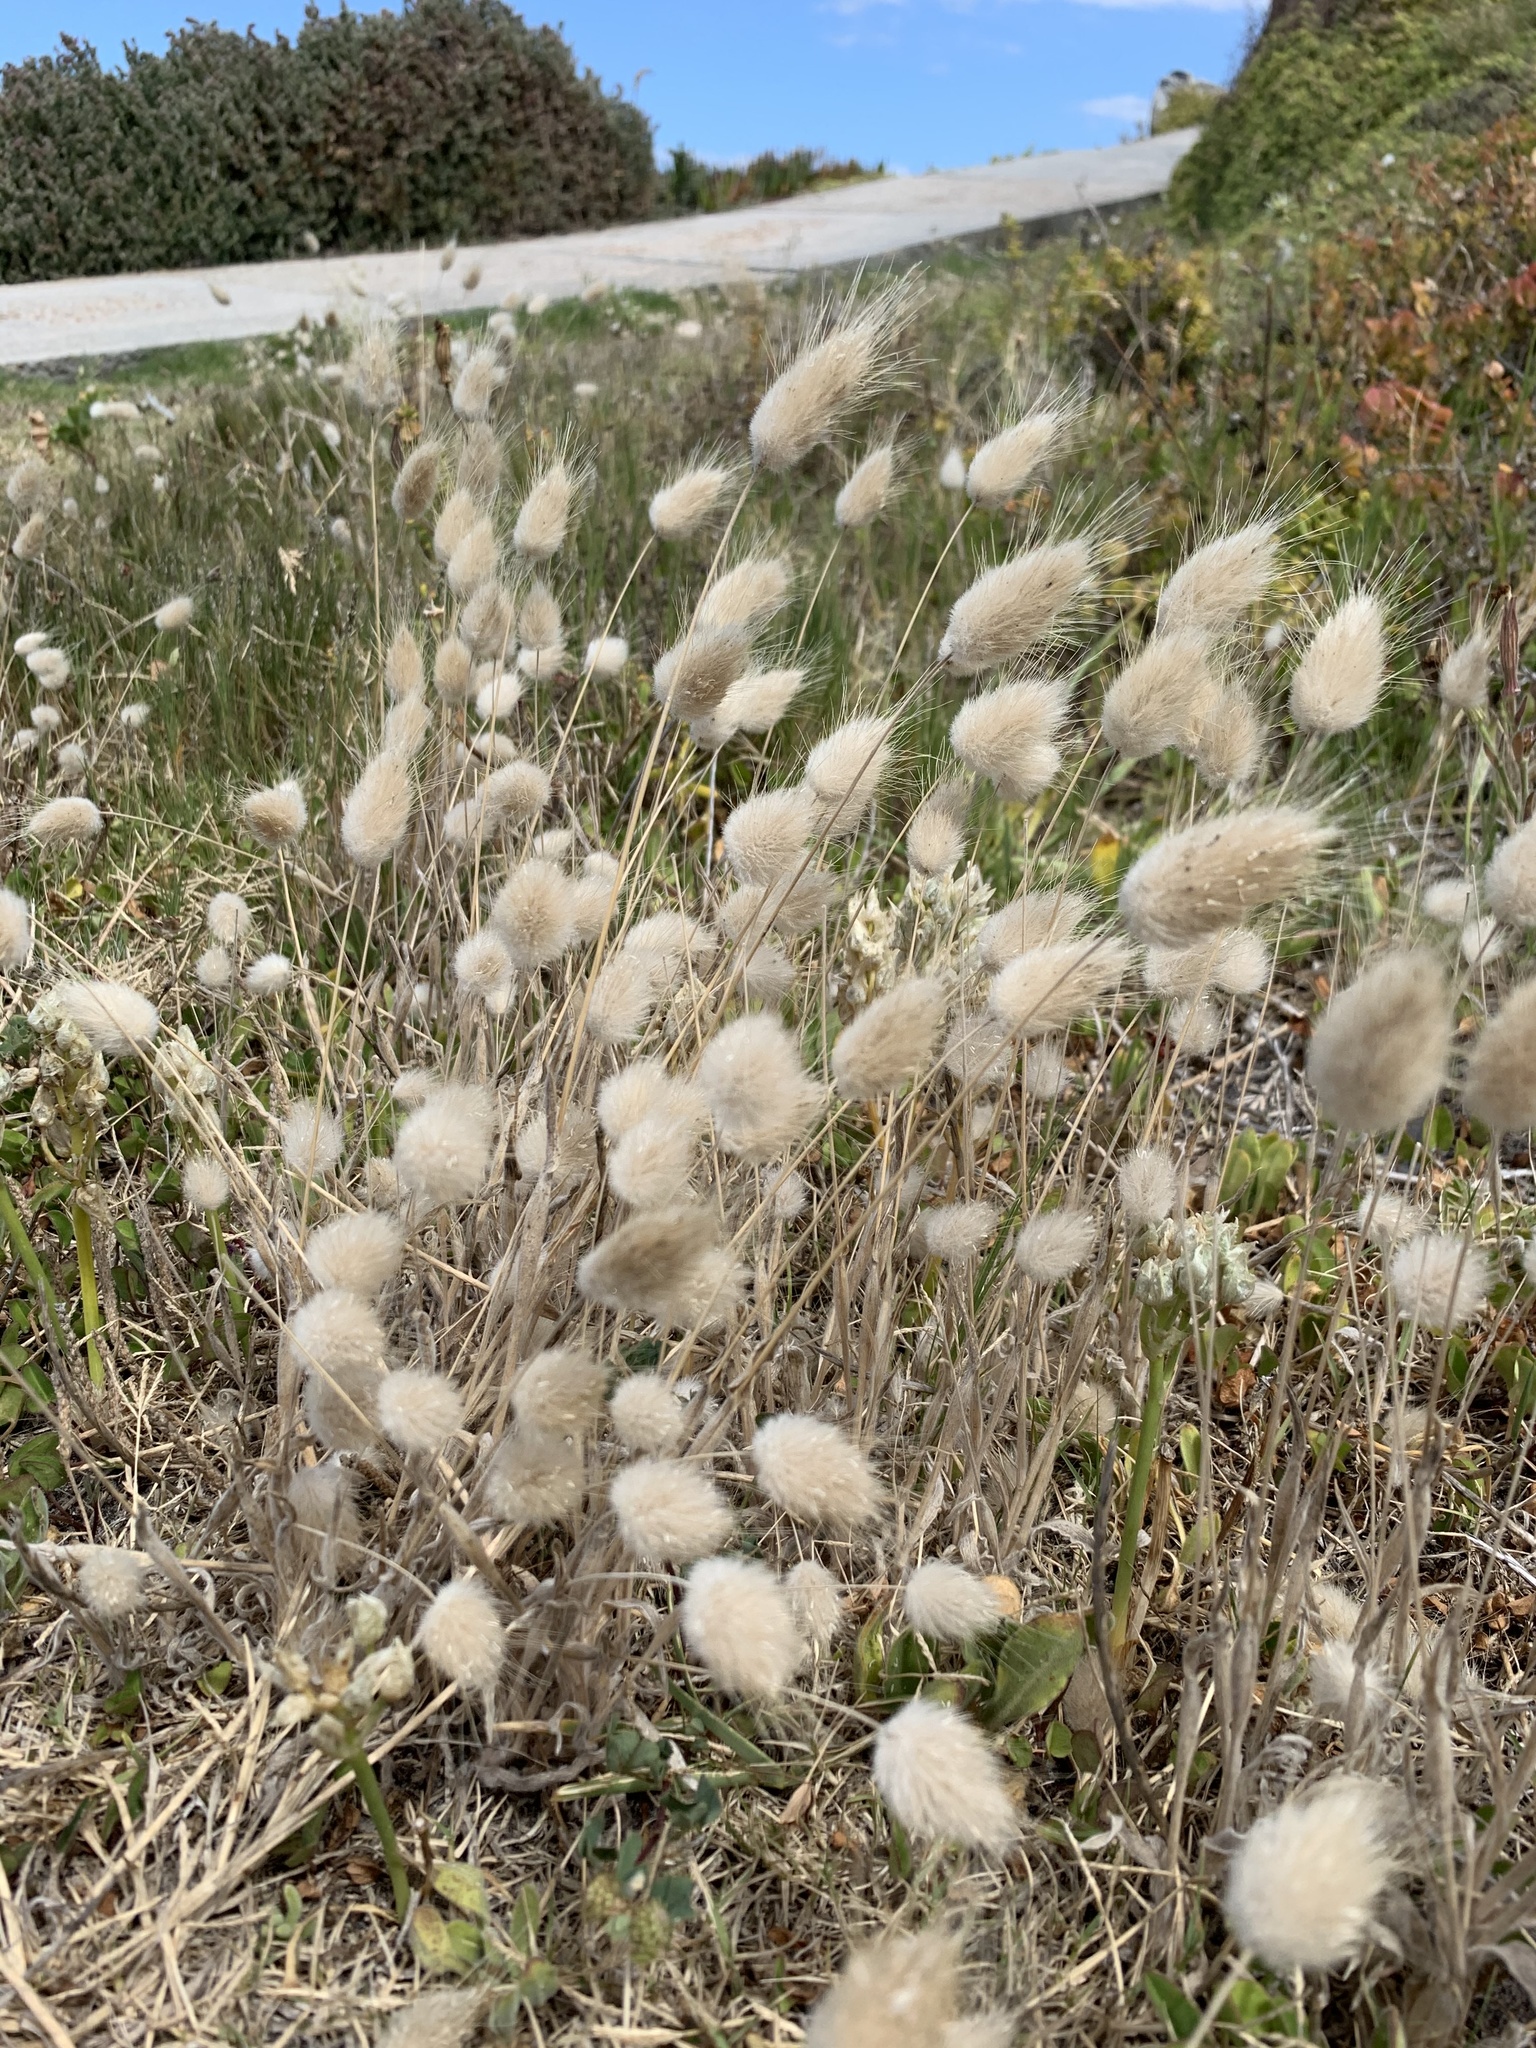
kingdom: Plantae
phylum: Tracheophyta
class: Liliopsida
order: Poales
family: Poaceae
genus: Lagurus
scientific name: Lagurus ovatus
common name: Hare's-tail
